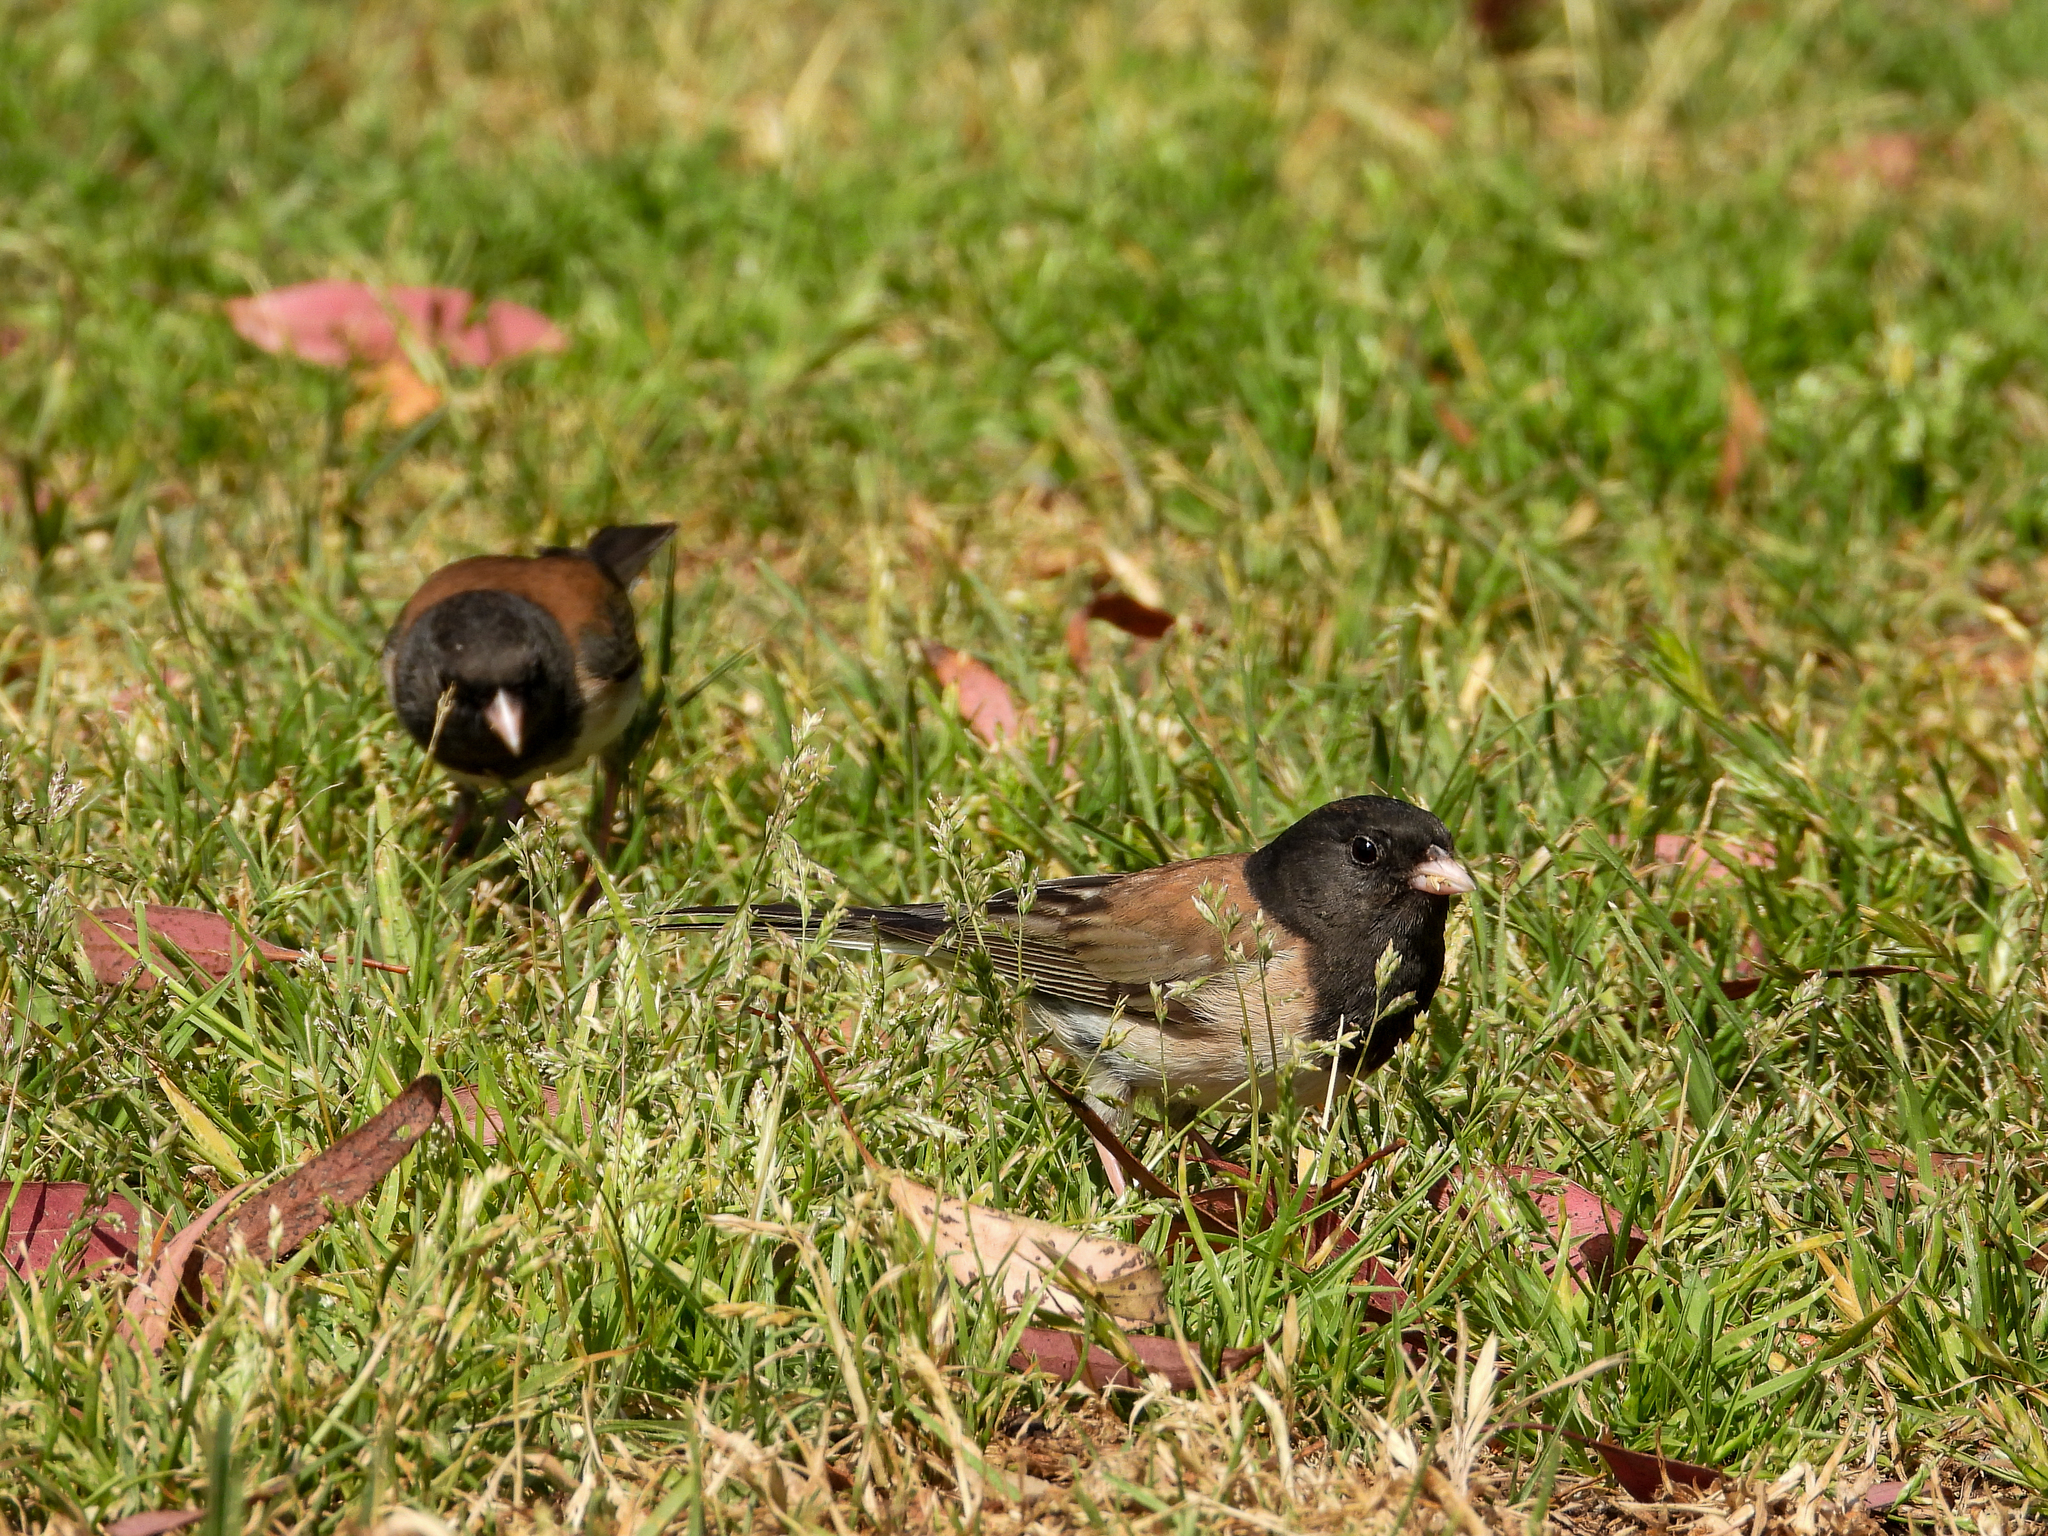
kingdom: Animalia
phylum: Chordata
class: Aves
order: Passeriformes
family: Passerellidae
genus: Junco
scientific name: Junco hyemalis
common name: Dark-eyed junco
